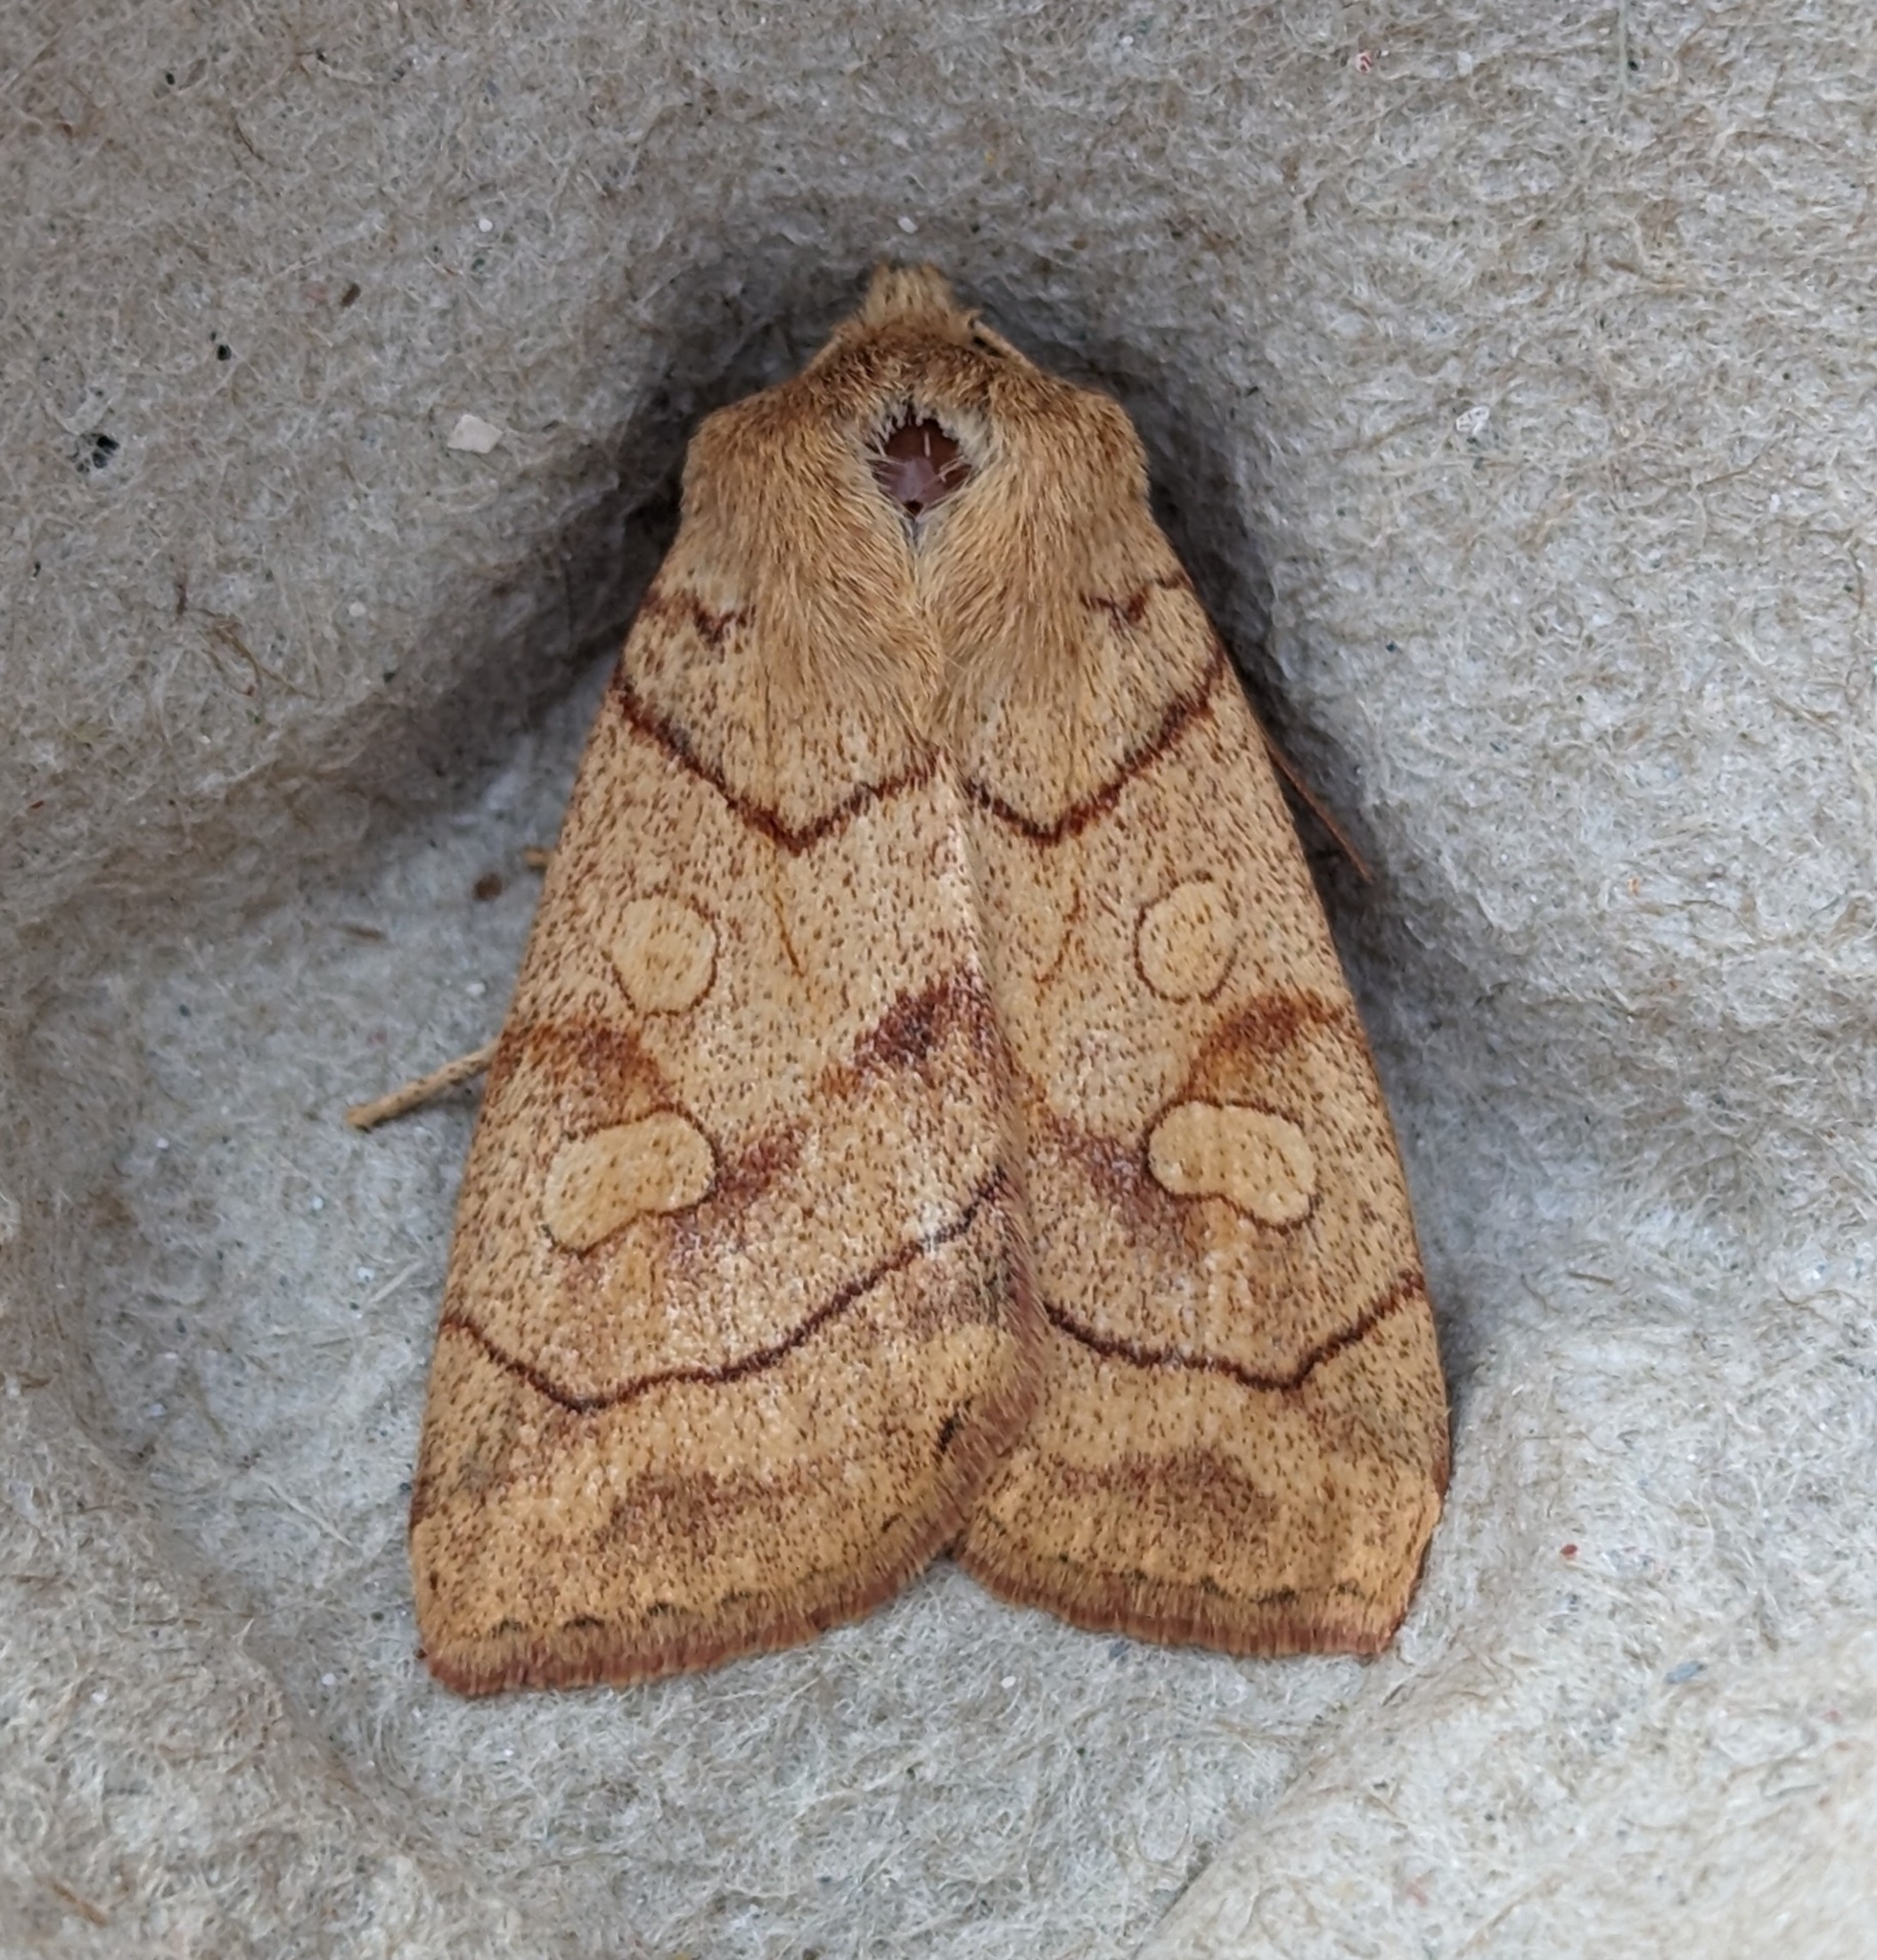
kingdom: Animalia
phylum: Arthropoda
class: Insecta
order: Lepidoptera
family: Noctuidae
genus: Enargia
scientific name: Enargia decolor
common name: Aspen twoleaf tier moth
